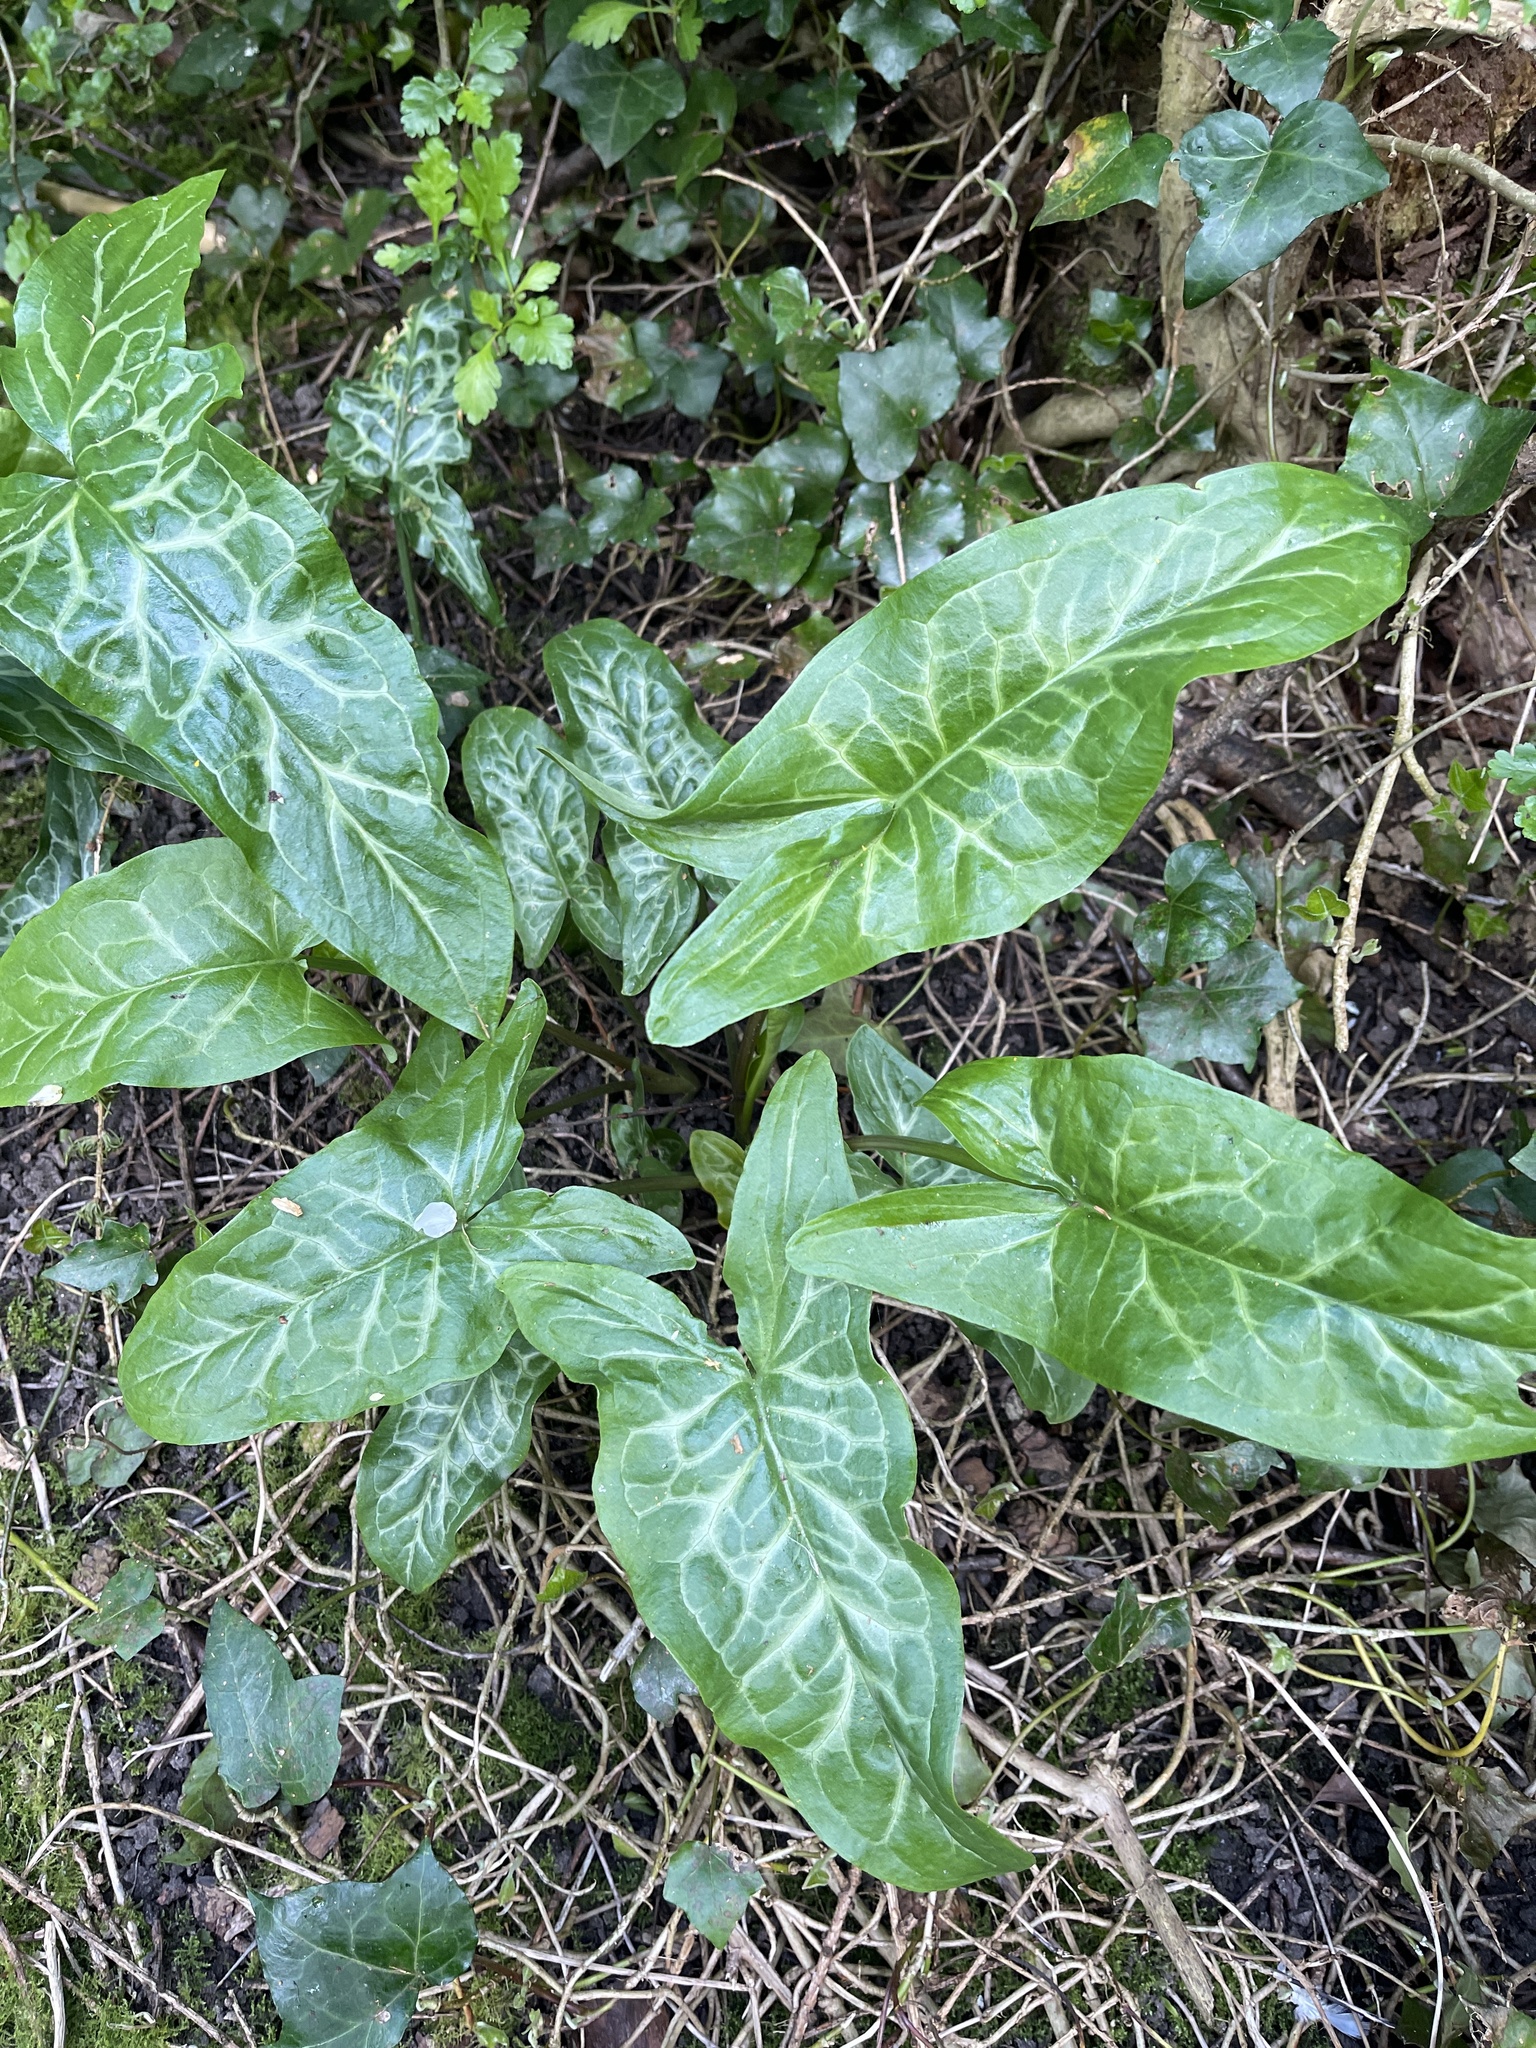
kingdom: Plantae
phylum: Tracheophyta
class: Liliopsida
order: Alismatales
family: Araceae
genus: Arum
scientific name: Arum italicum
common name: Italian lords-and-ladies
